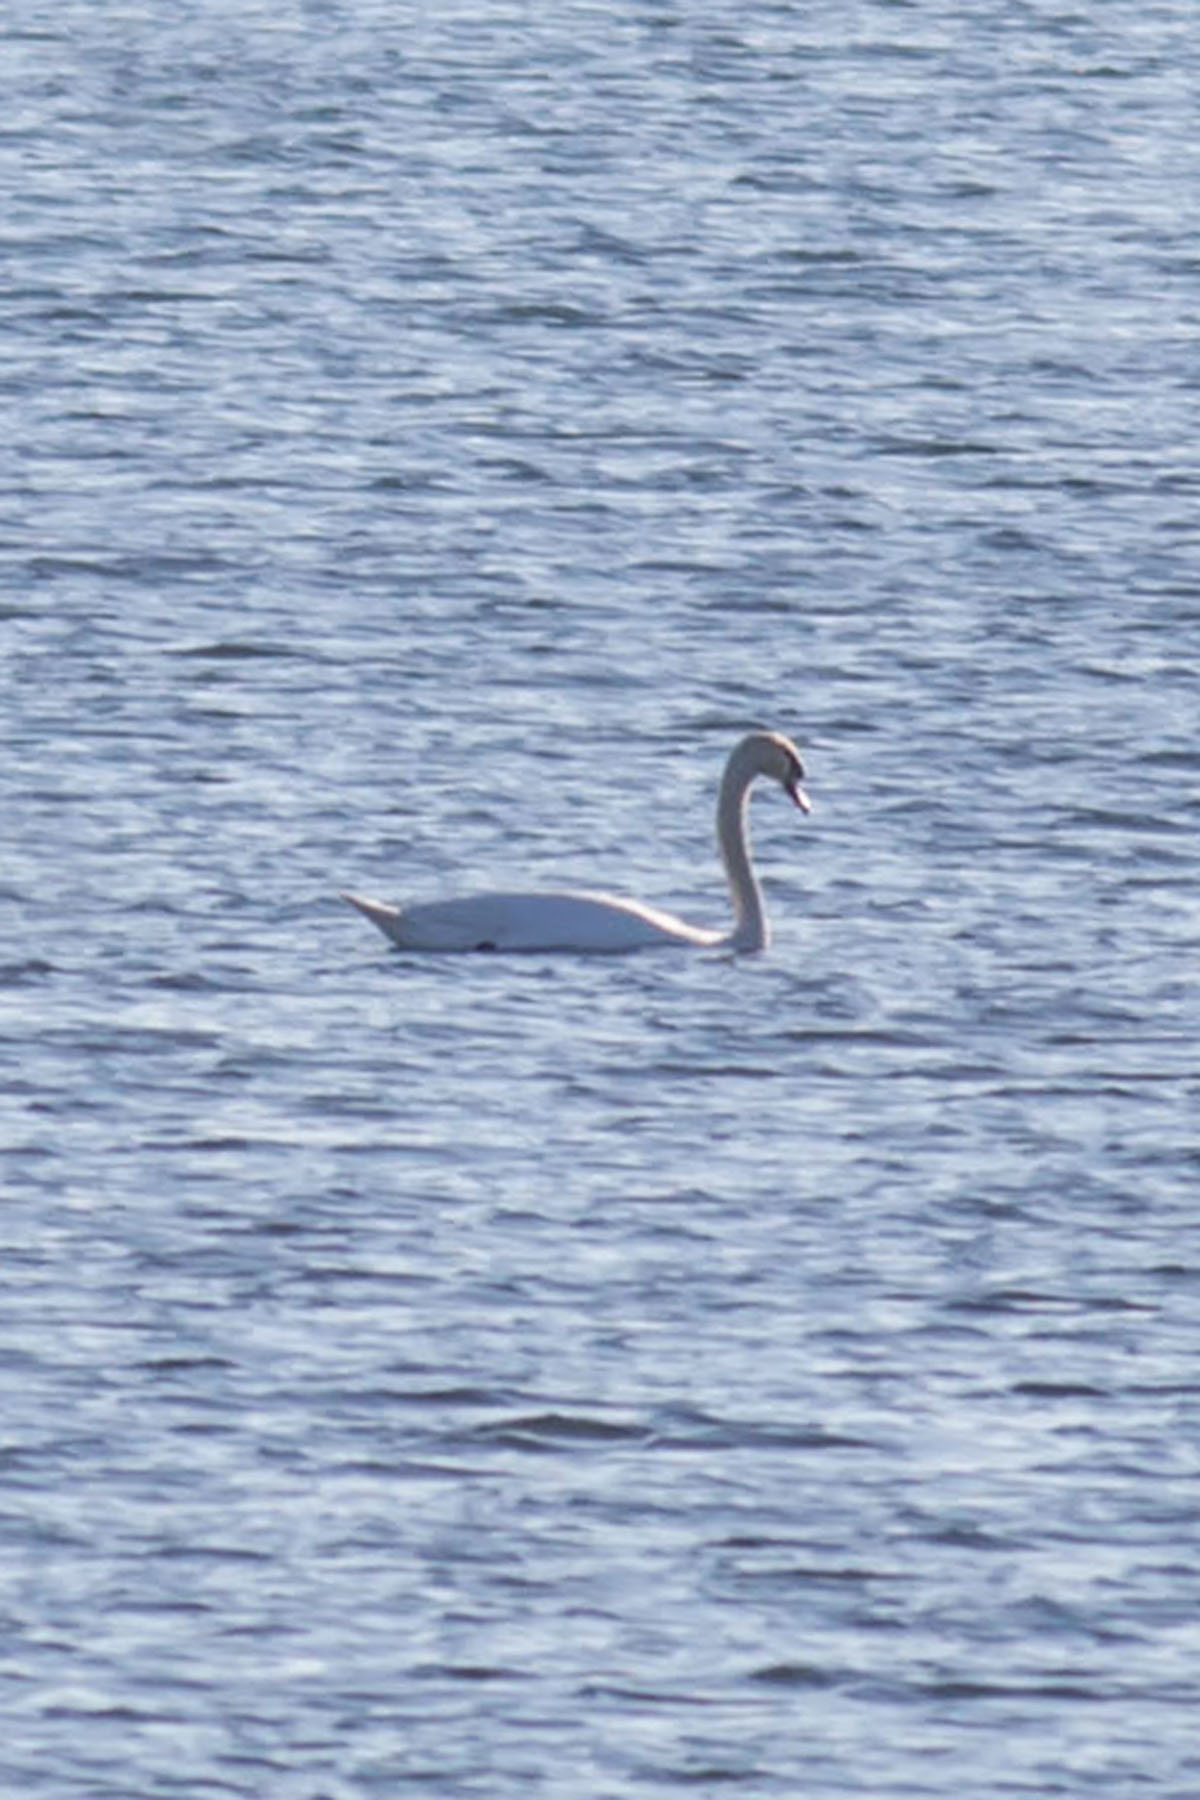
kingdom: Animalia
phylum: Chordata
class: Aves
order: Anseriformes
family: Anatidae
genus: Cygnus
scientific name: Cygnus olor
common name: Mute swan
